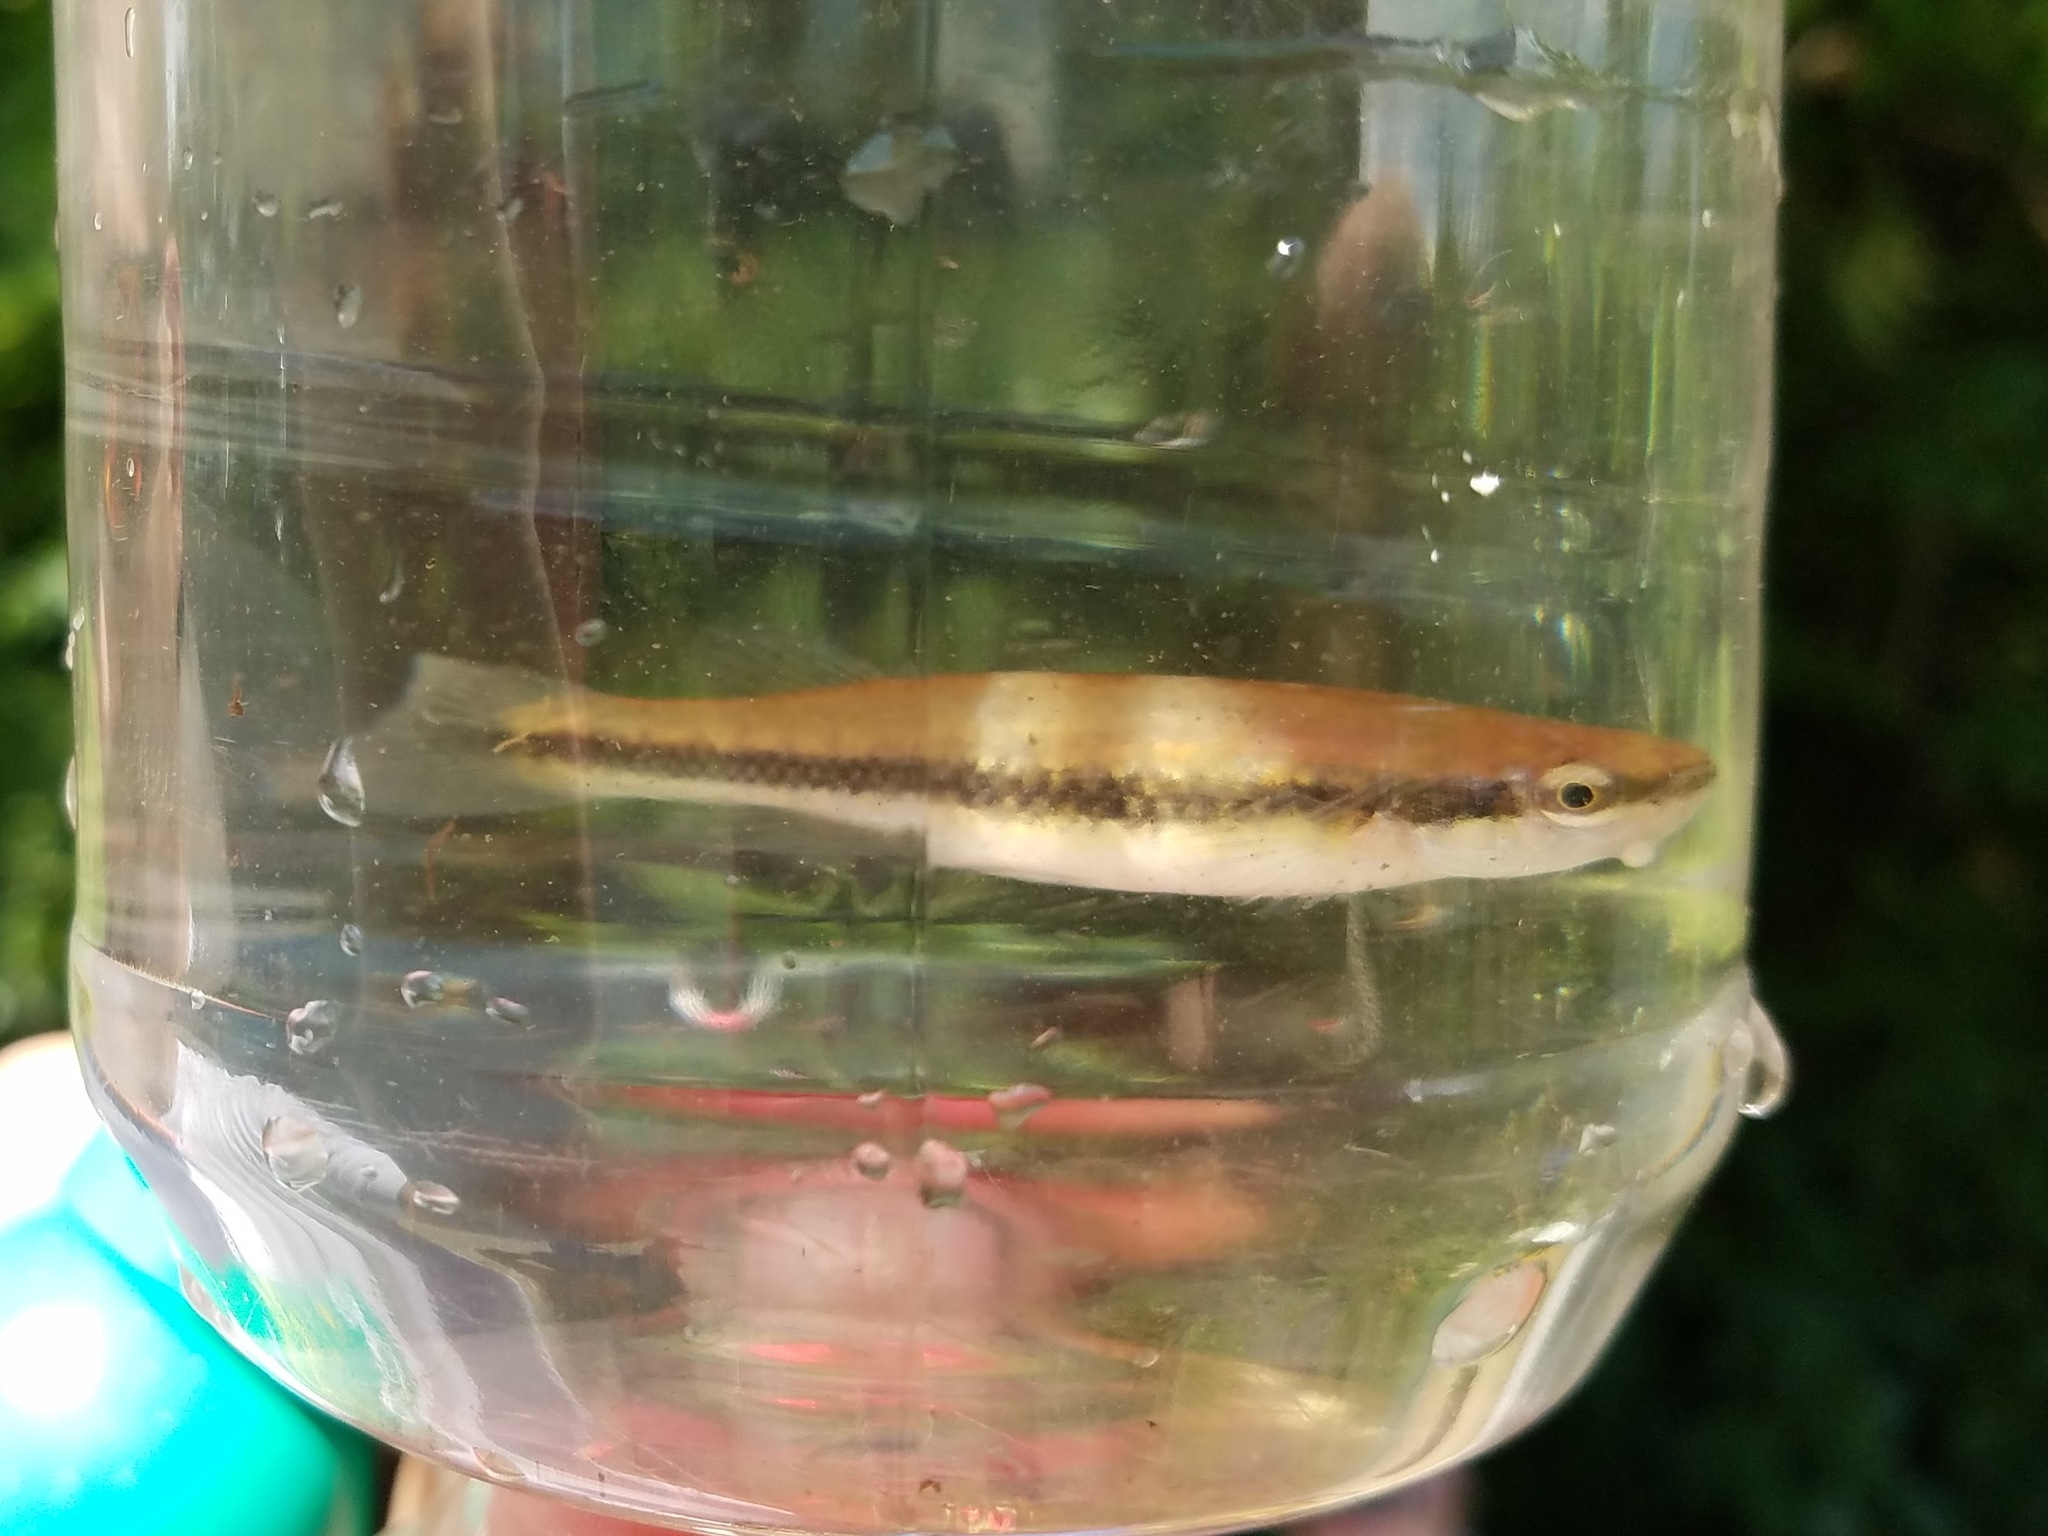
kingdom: Animalia
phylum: Chordata
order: Cyprinodontiformes
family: Fundulidae
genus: Fundulus
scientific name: Fundulus notatus
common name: Blackstripe topminnow
